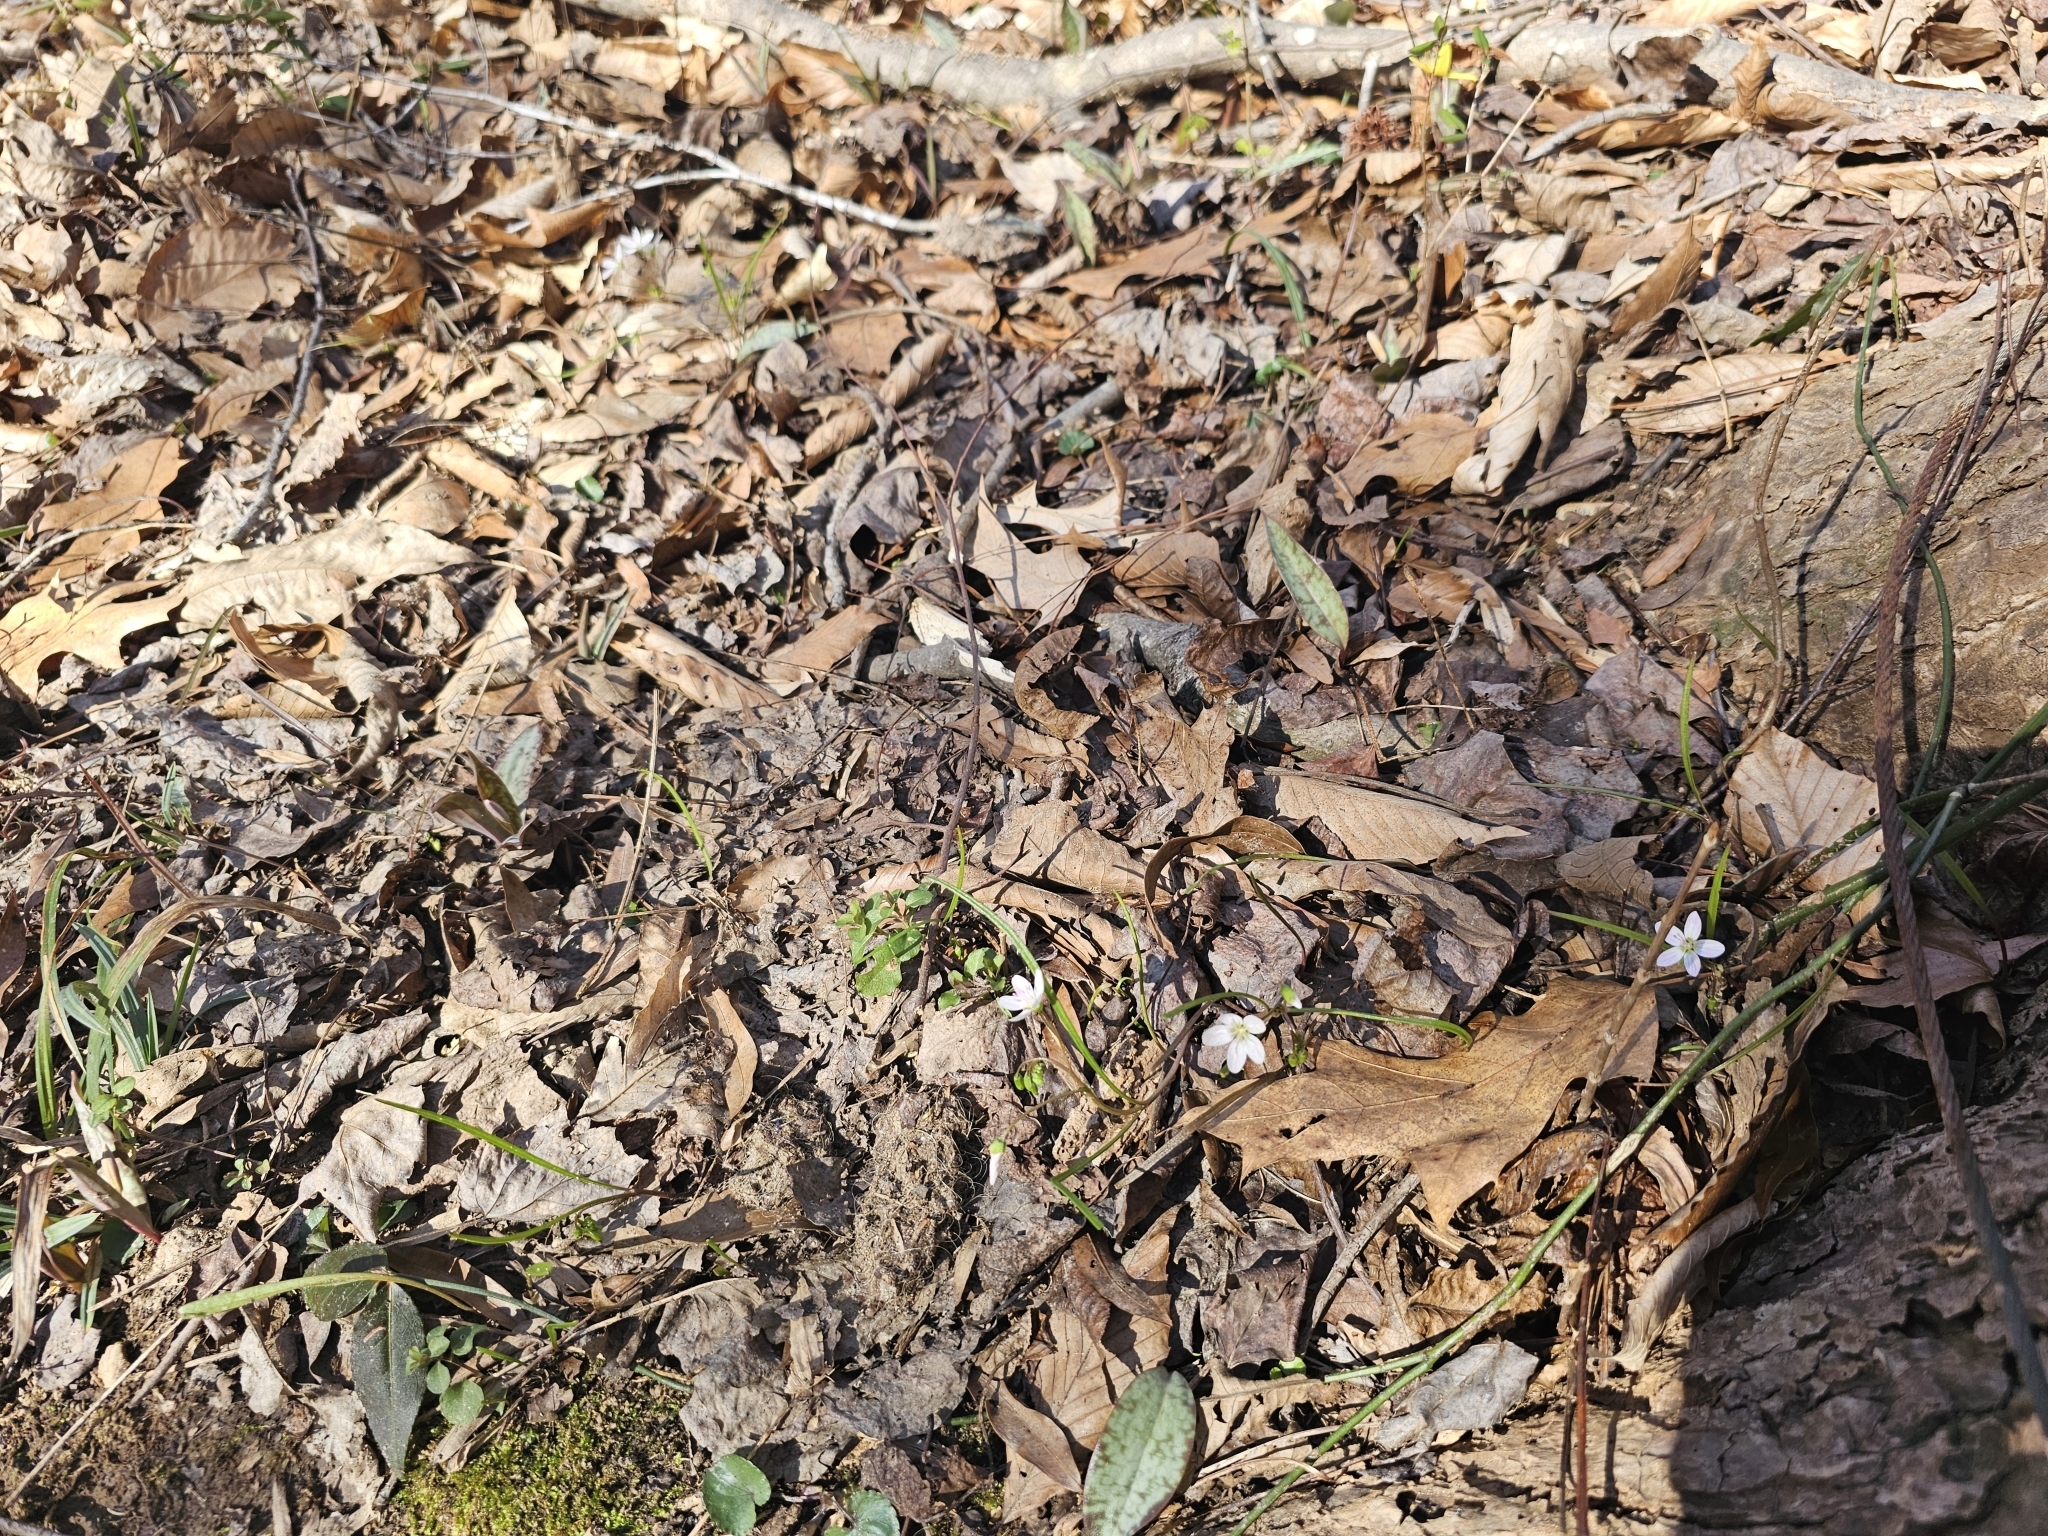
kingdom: Plantae
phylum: Tracheophyta
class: Magnoliopsida
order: Caryophyllales
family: Montiaceae
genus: Claytonia
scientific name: Claytonia virginica
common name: Virginia springbeauty
